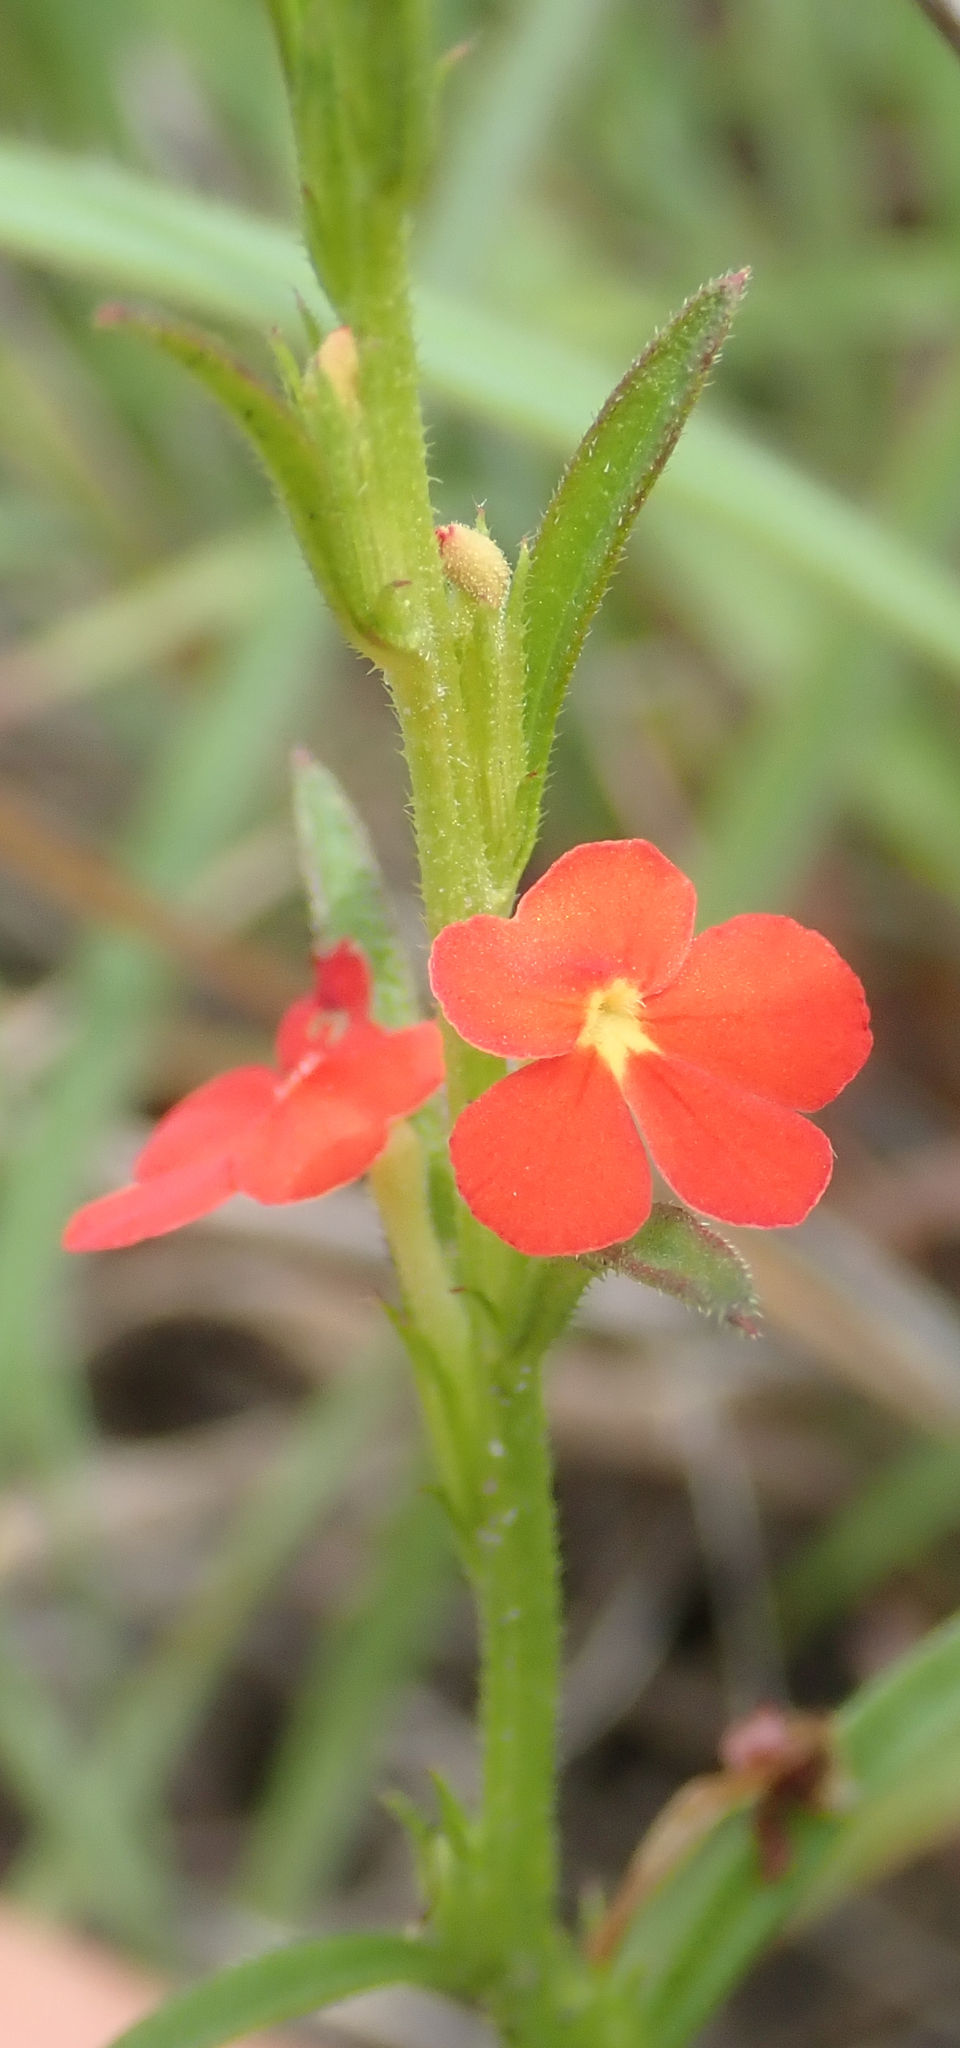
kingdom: Plantae
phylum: Tracheophyta
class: Magnoliopsida
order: Lamiales
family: Orobanchaceae
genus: Striga
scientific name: Striga asiatica
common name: Asiatic witchweed
